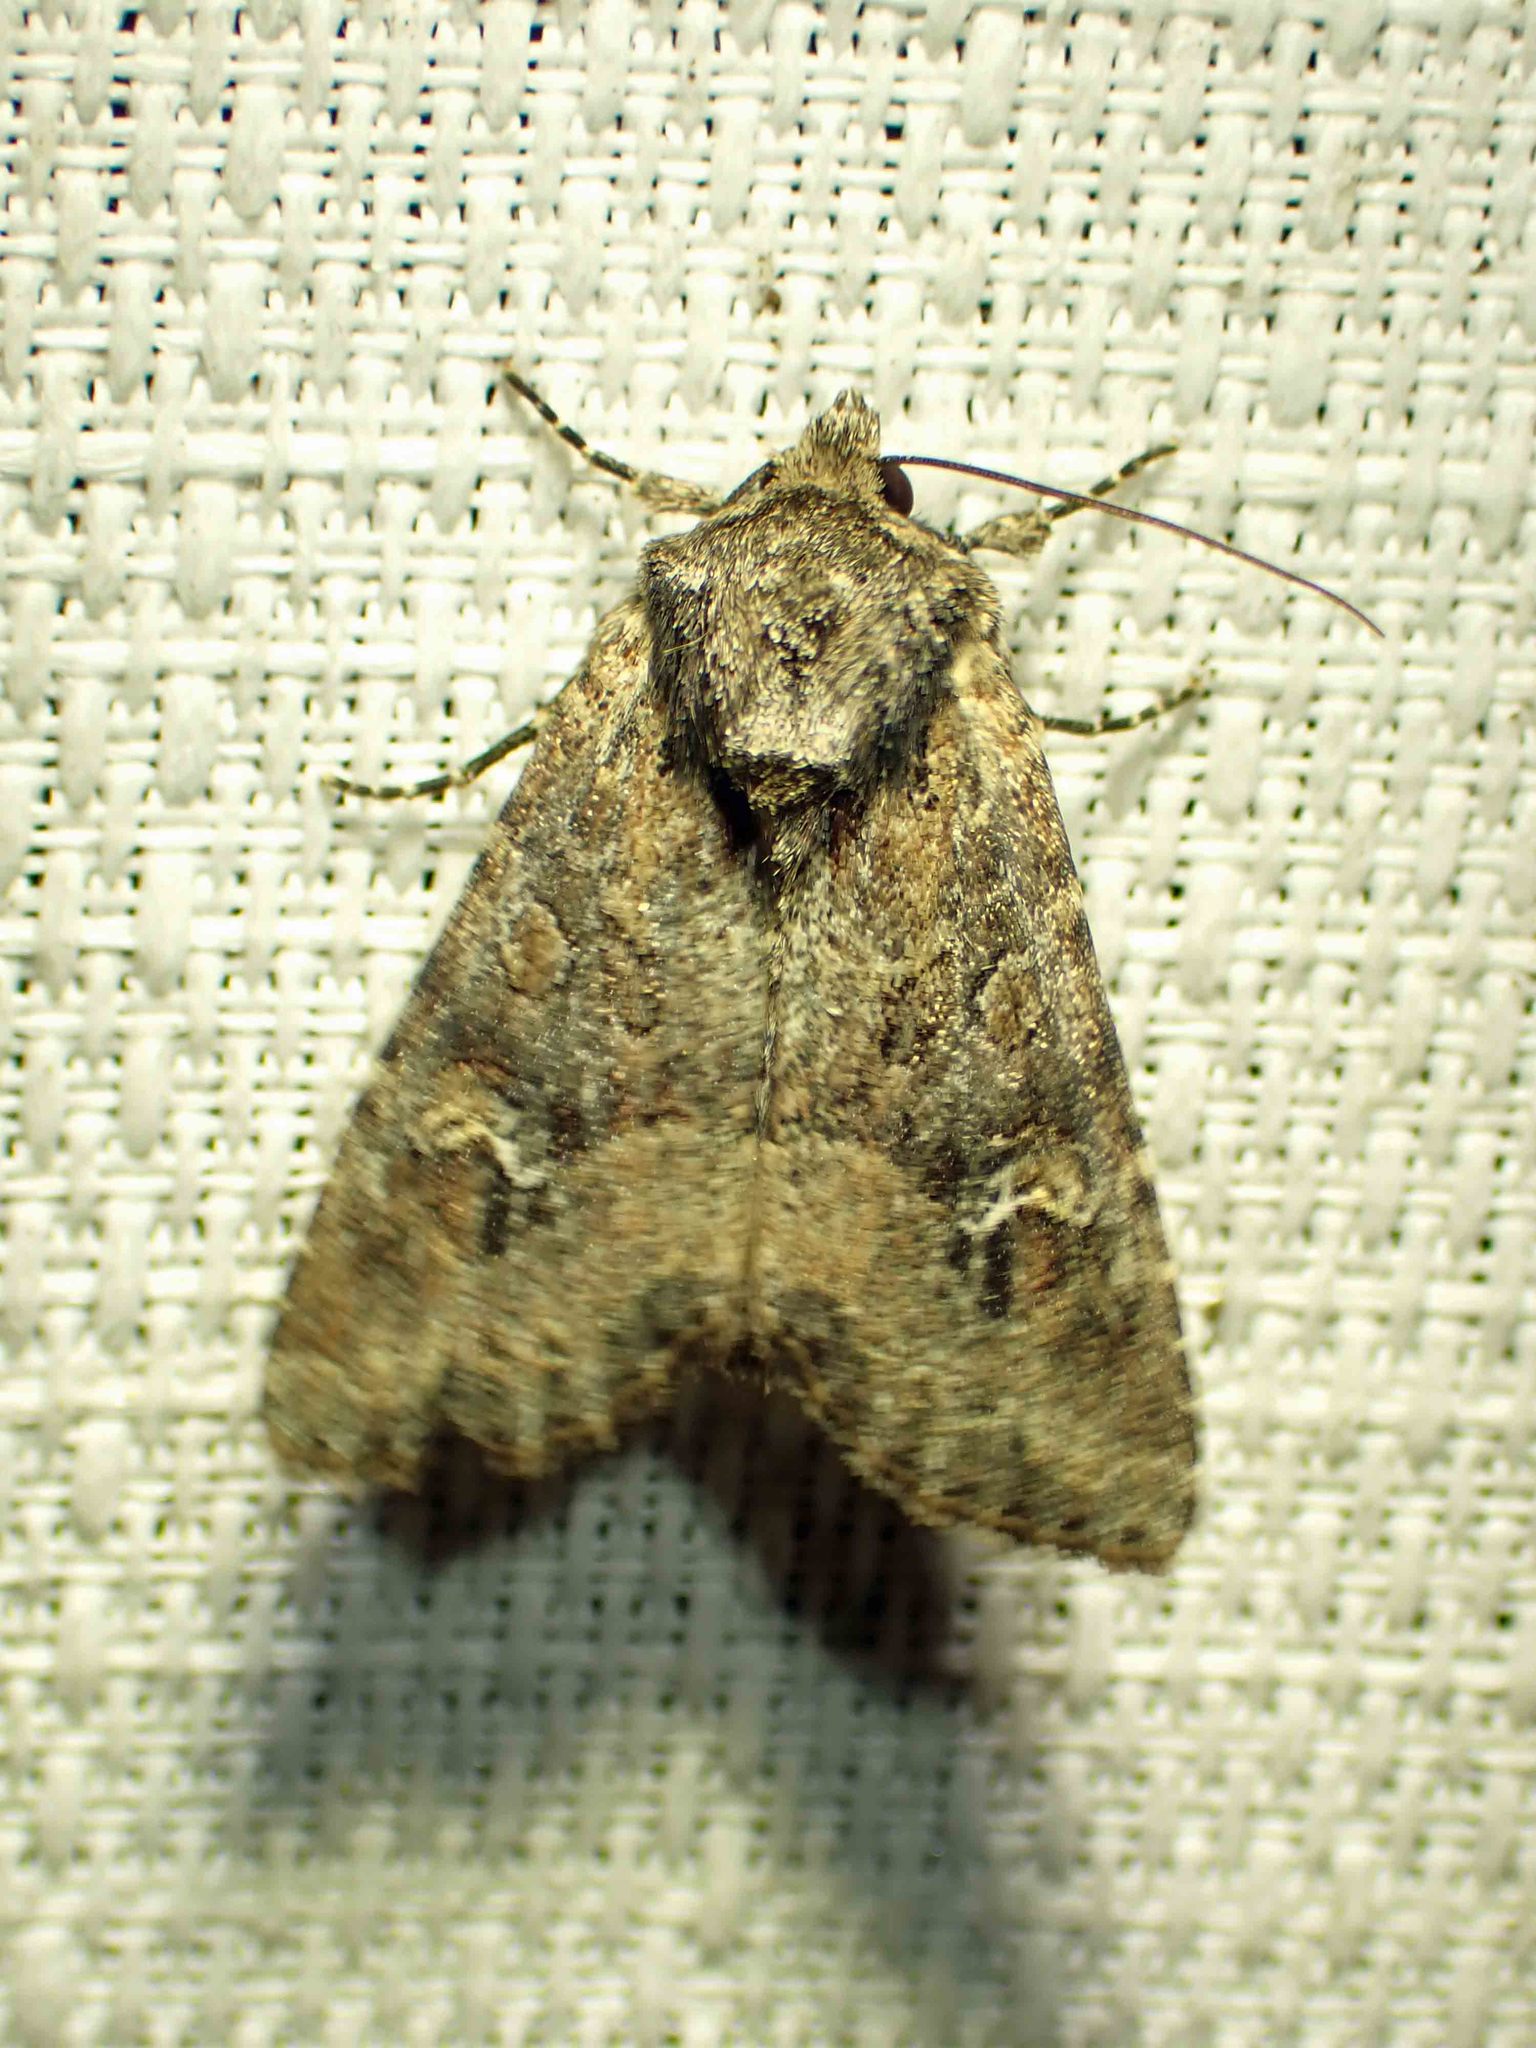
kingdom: Animalia
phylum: Arthropoda
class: Insecta
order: Lepidoptera
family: Noctuidae
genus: Apamea
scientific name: Apamea unanimis
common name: Small clouded brindle
